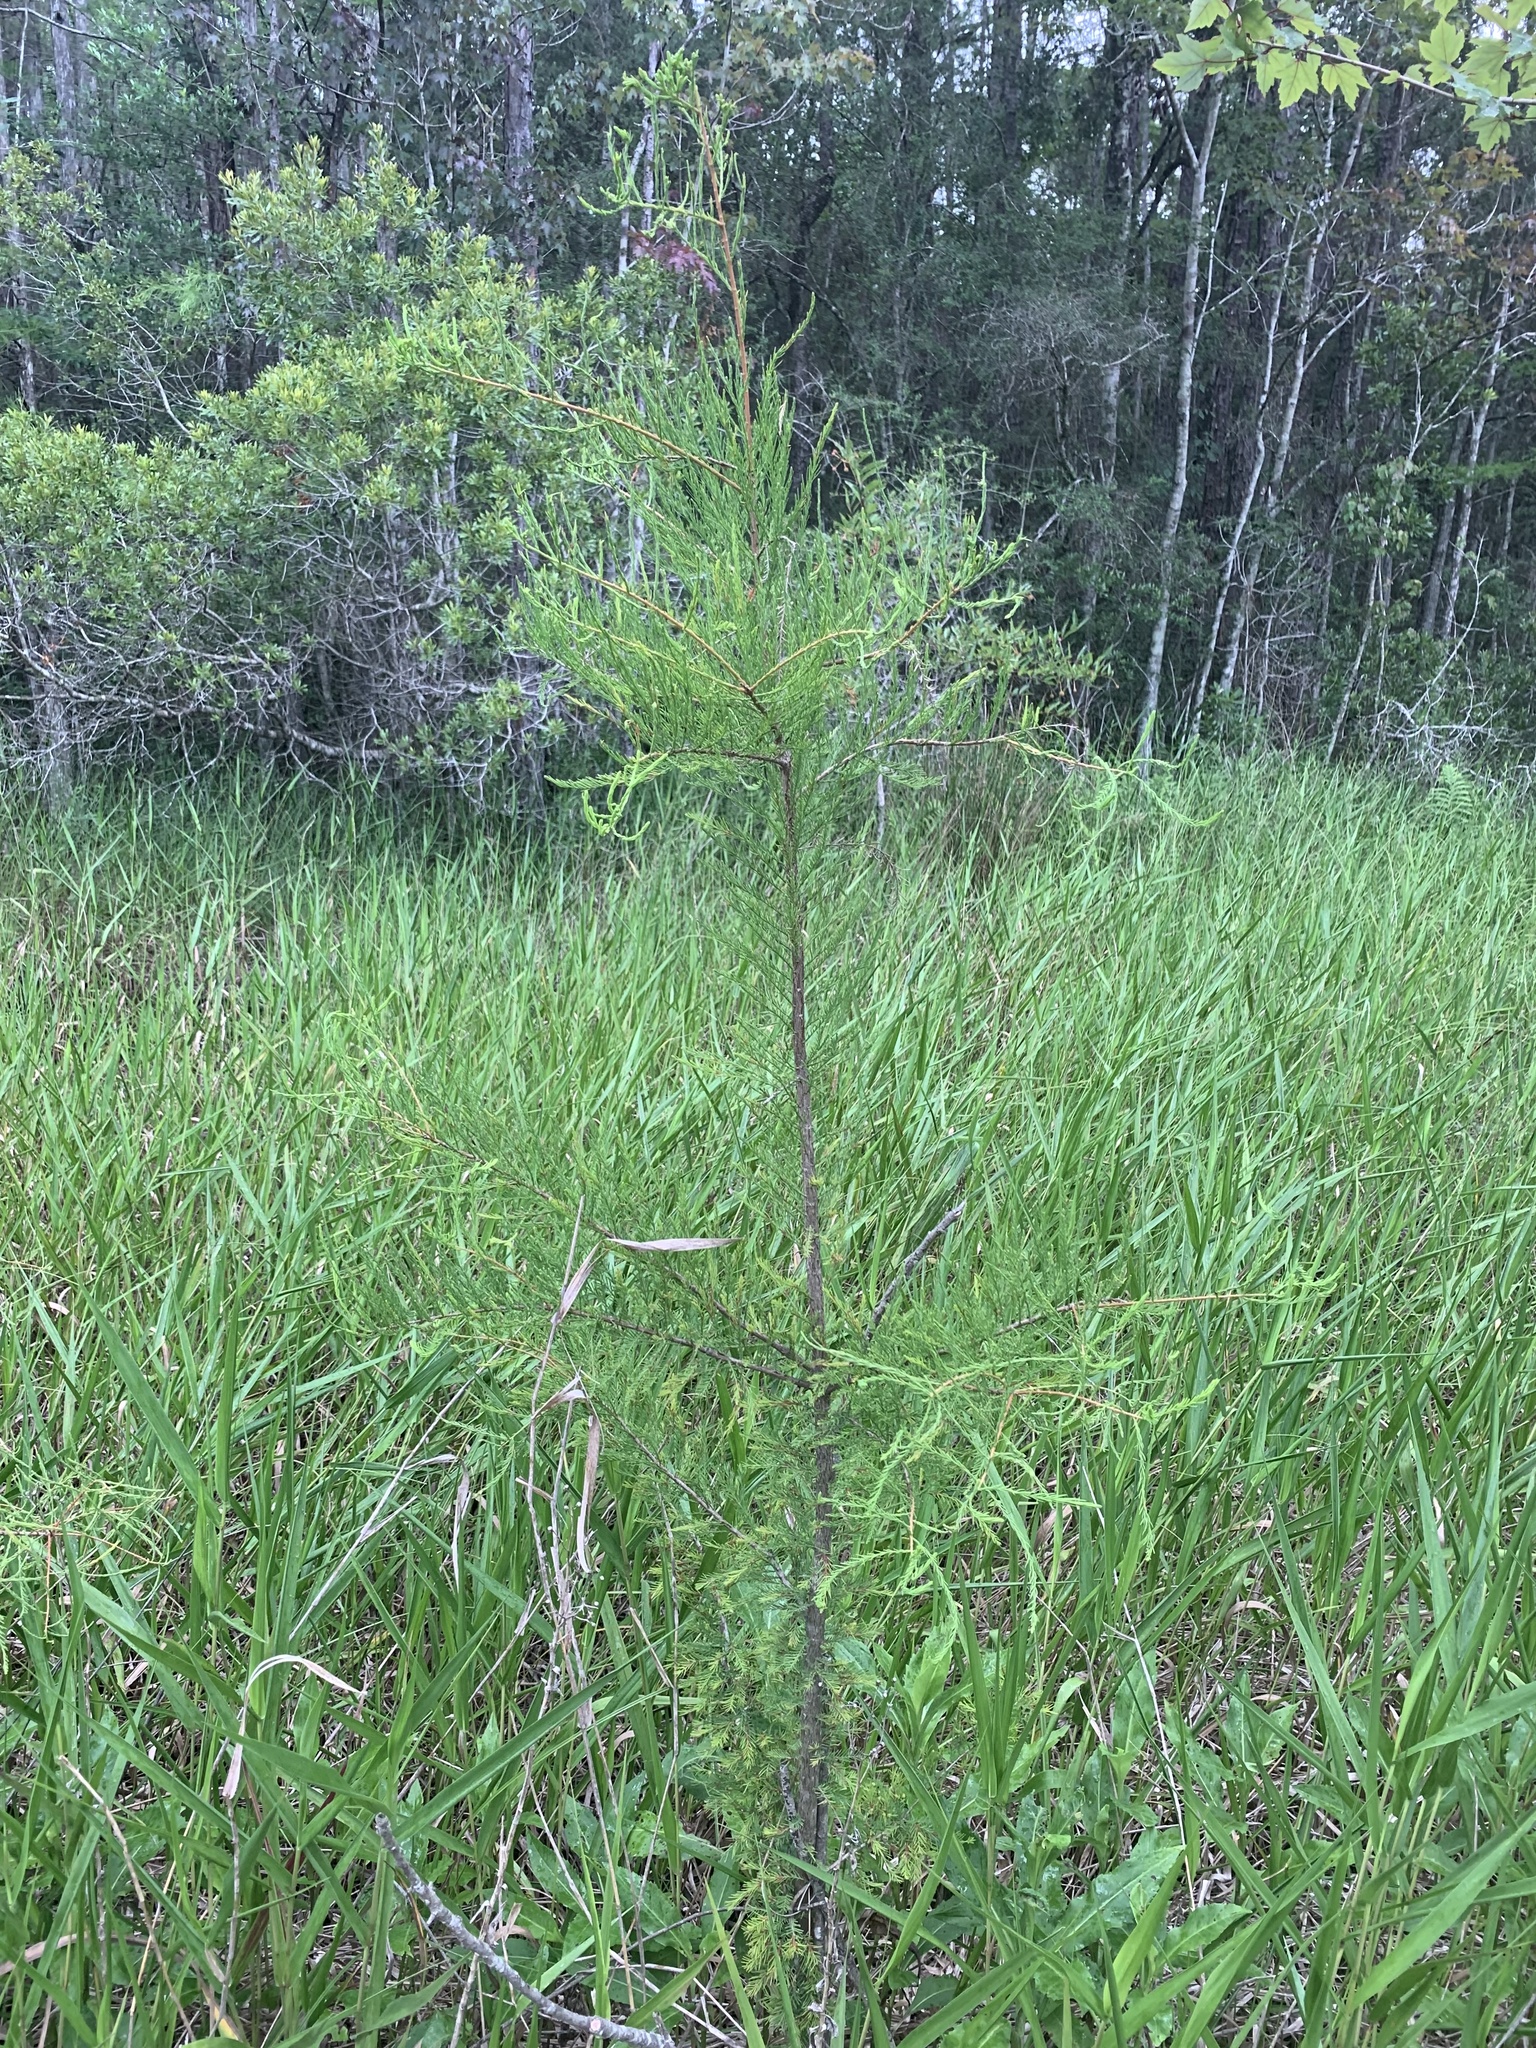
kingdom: Plantae
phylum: Tracheophyta
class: Pinopsida
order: Pinales
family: Cupressaceae
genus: Taxodium
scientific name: Taxodium distichum
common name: Bald cypress
